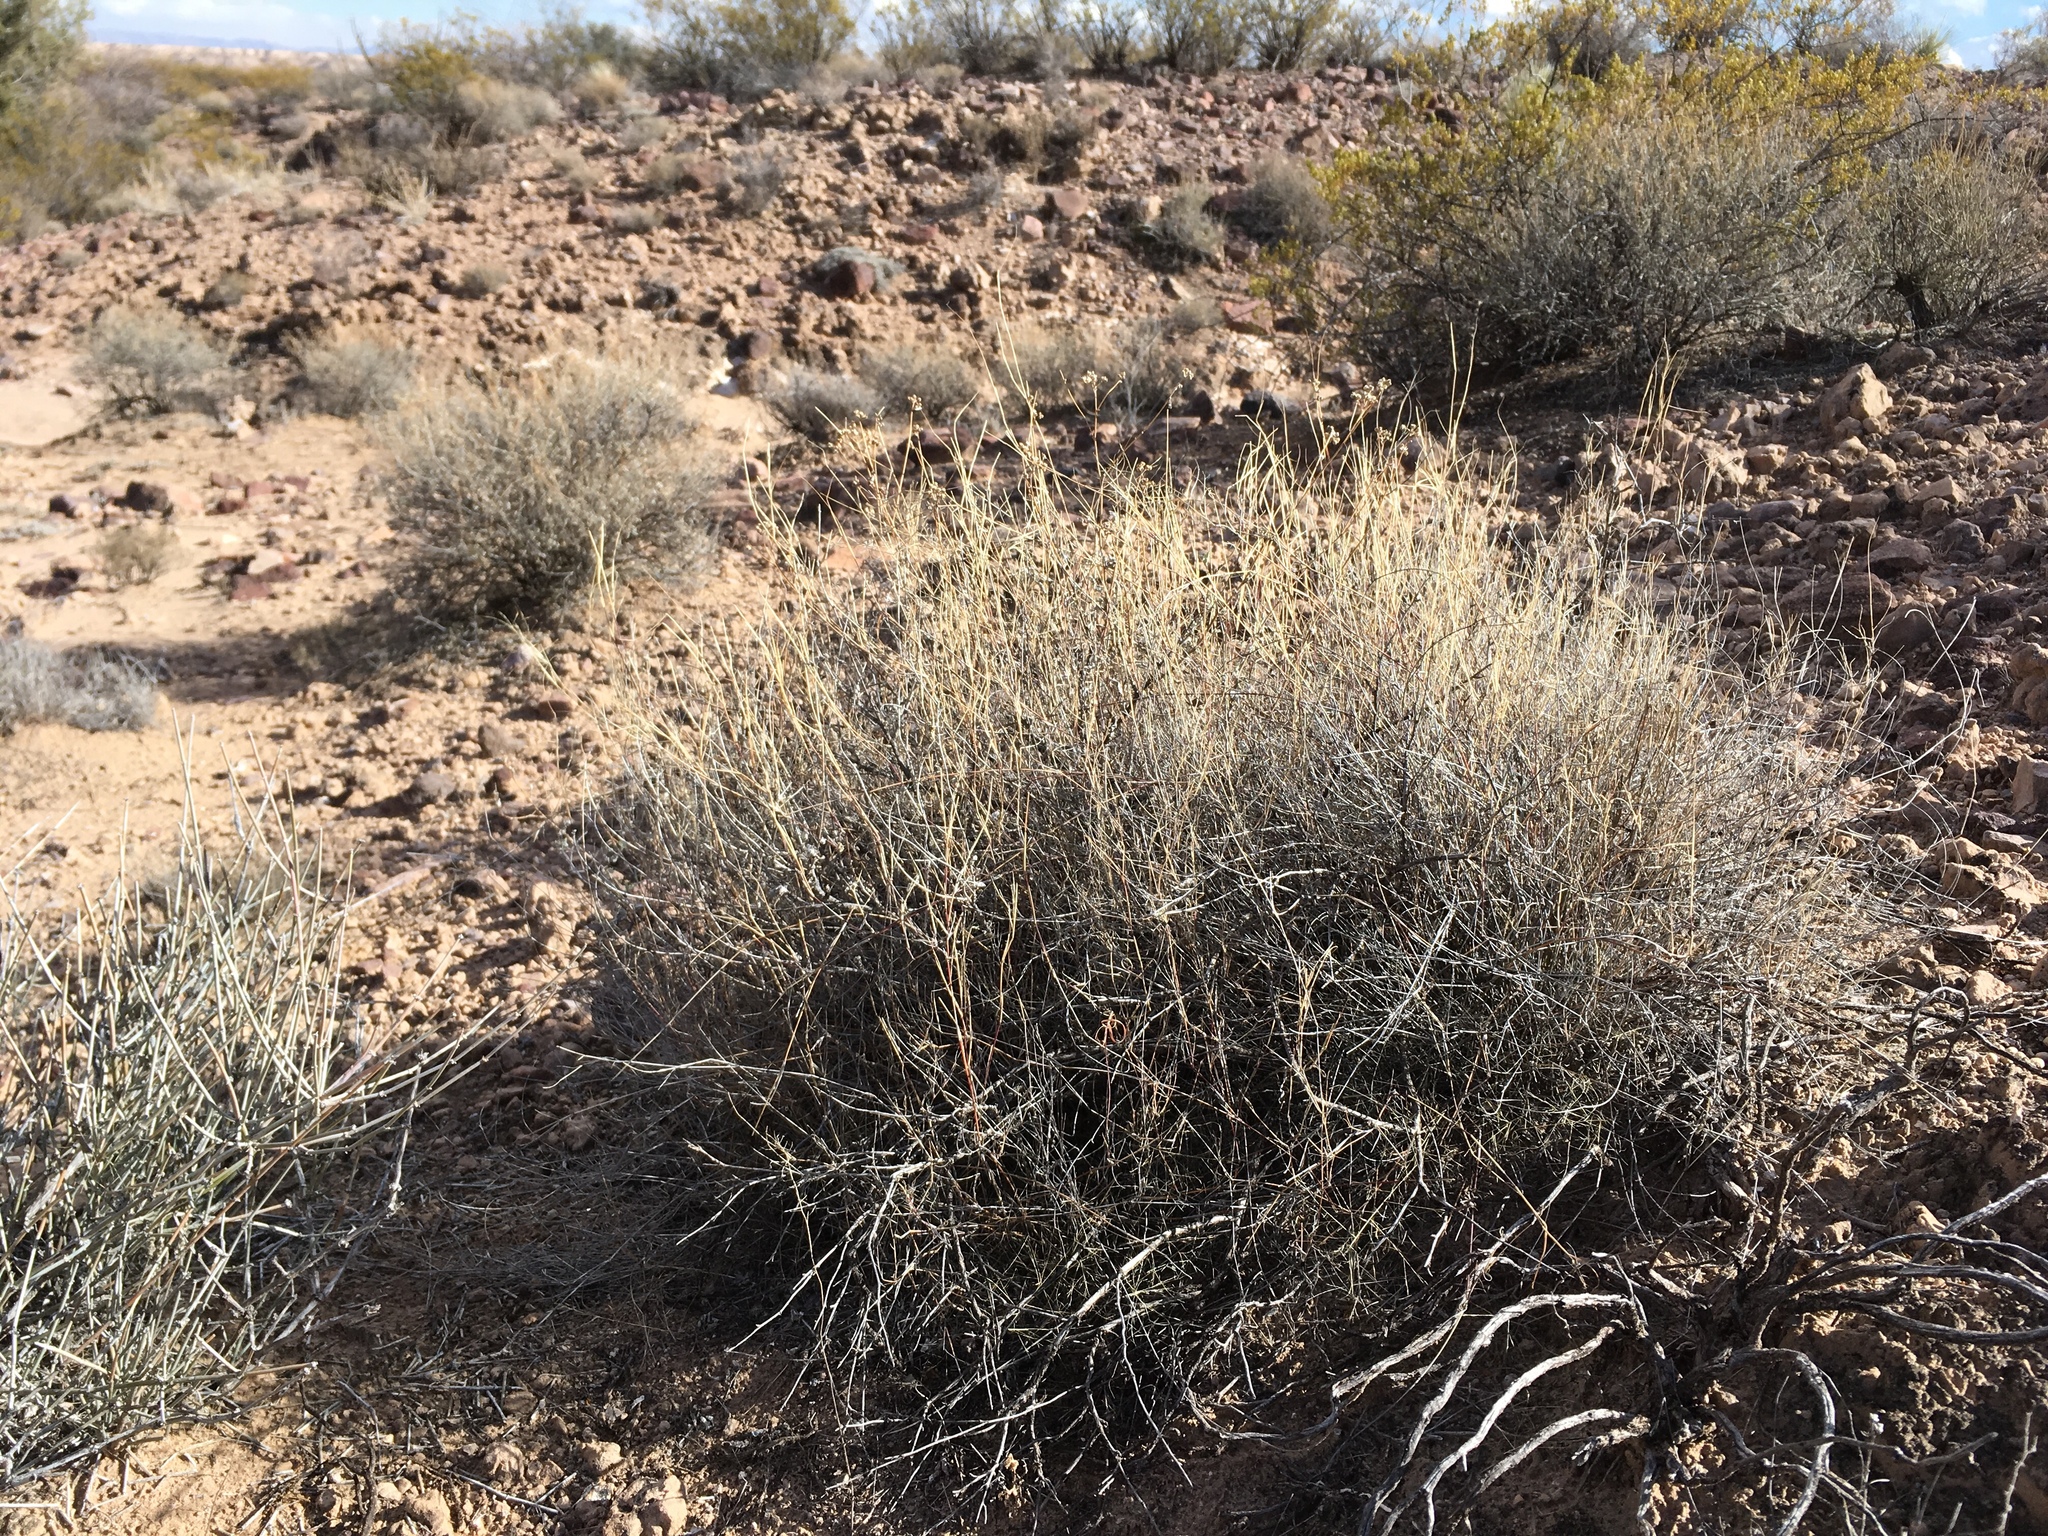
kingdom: Plantae
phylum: Tracheophyta
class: Liliopsida
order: Poales
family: Poaceae
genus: Muhlenbergia
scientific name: Muhlenbergia porteri
